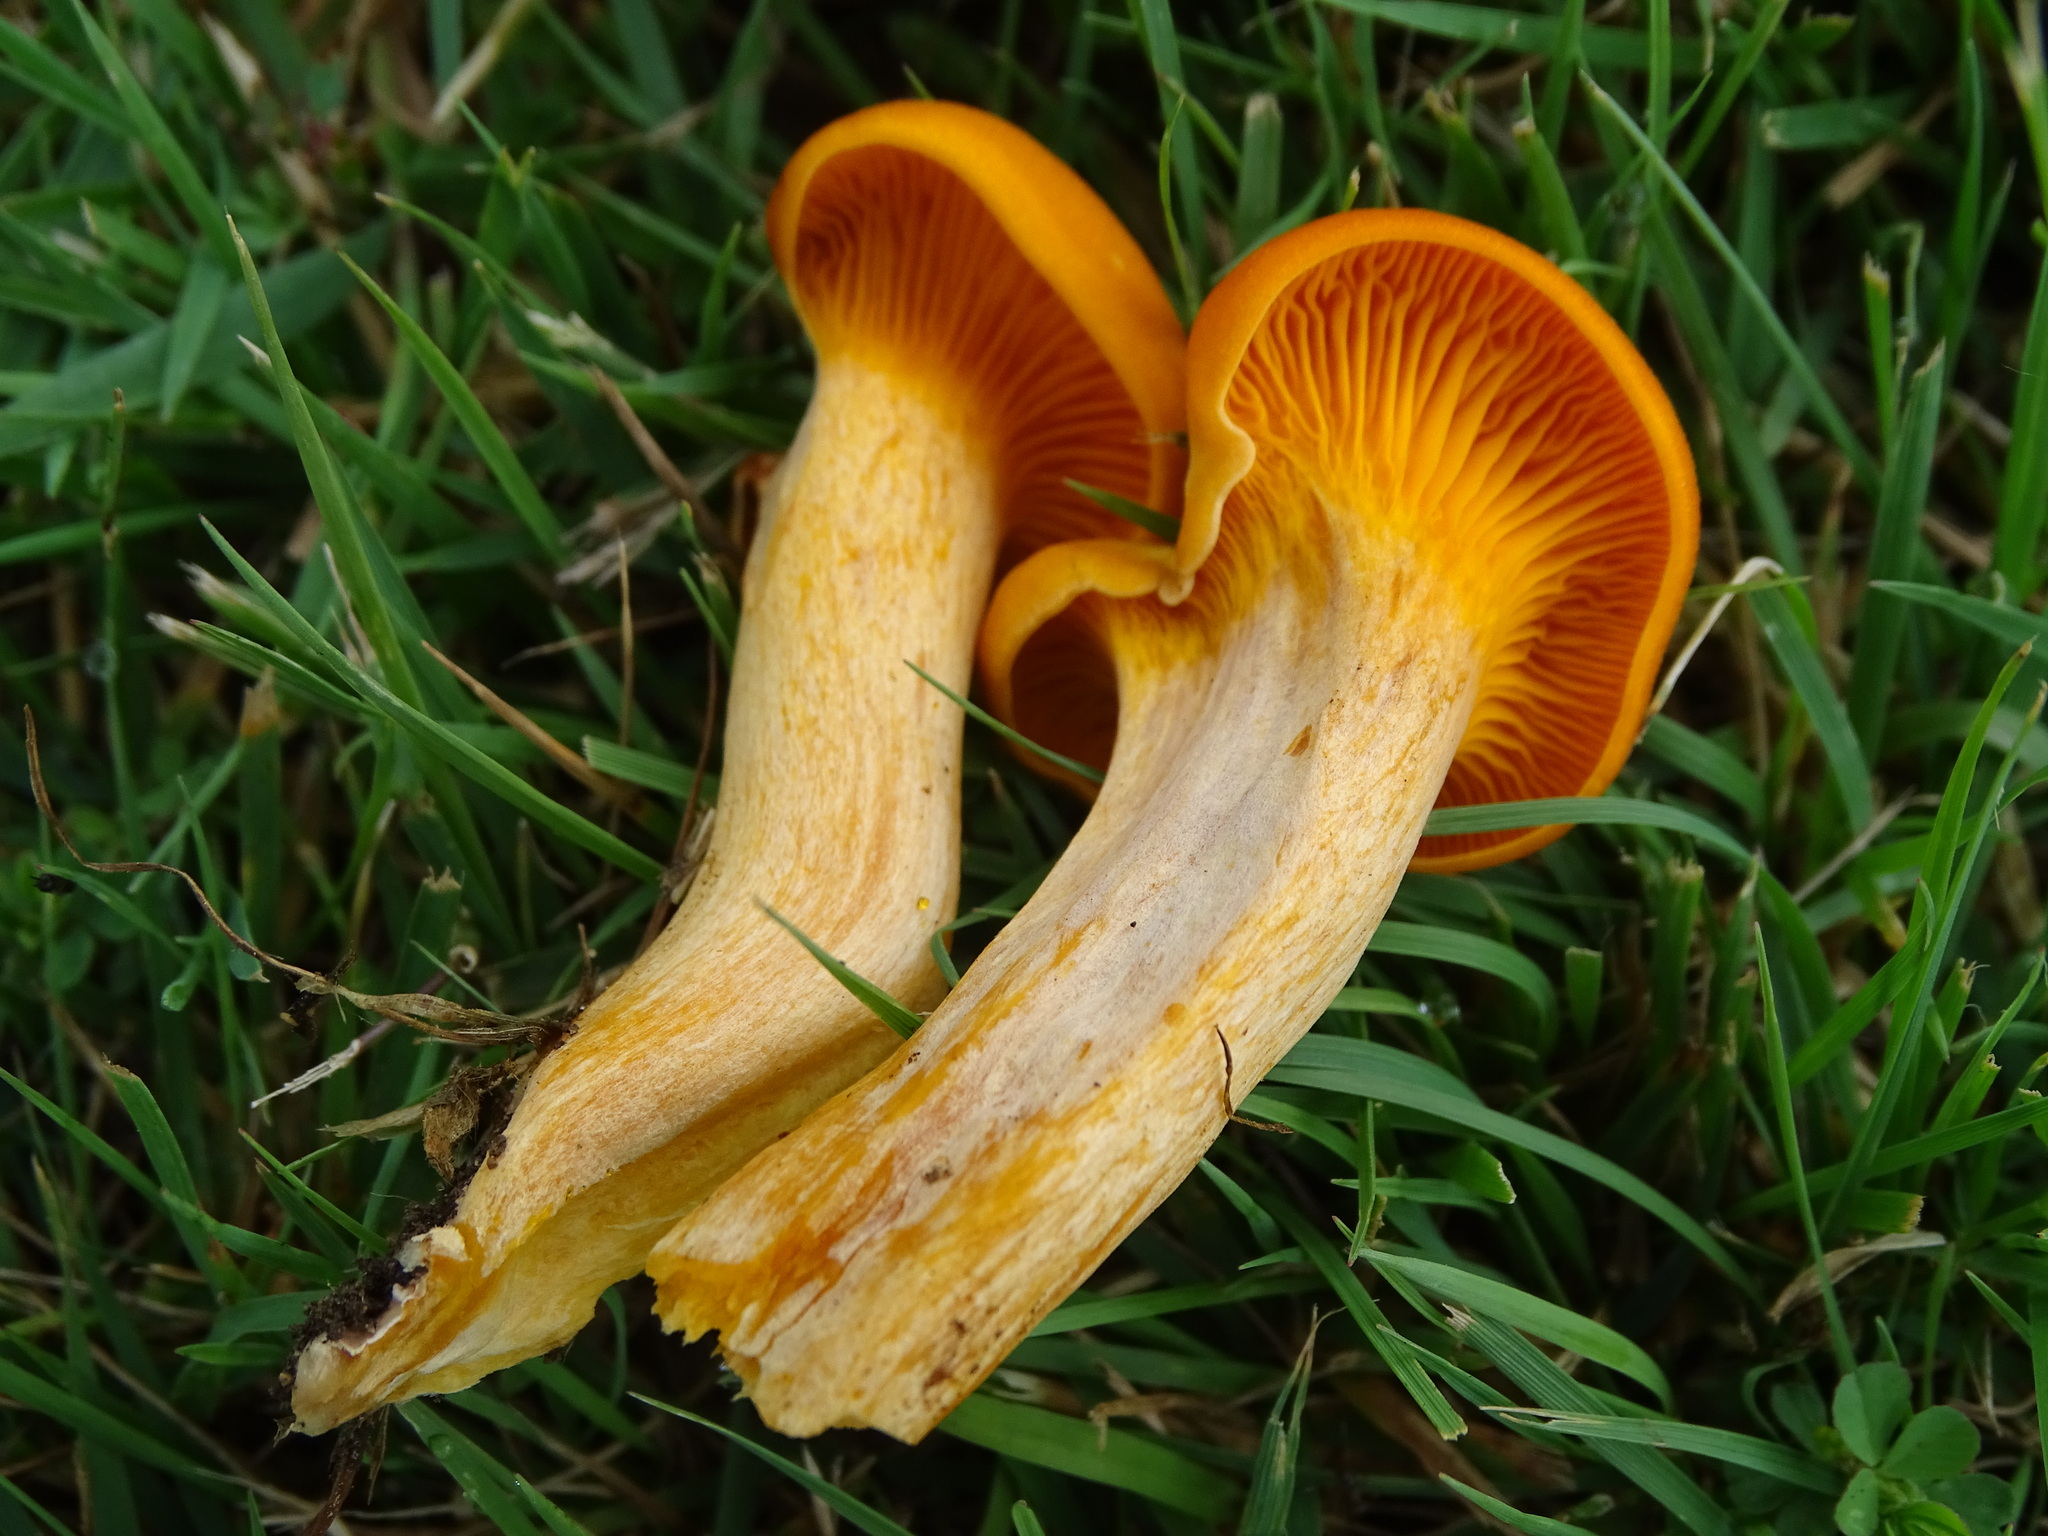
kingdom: Fungi
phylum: Basidiomycota
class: Agaricomycetes
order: Agaricales
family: Omphalotaceae
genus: Omphalotus
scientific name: Omphalotus illudens
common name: Jack o lantern
